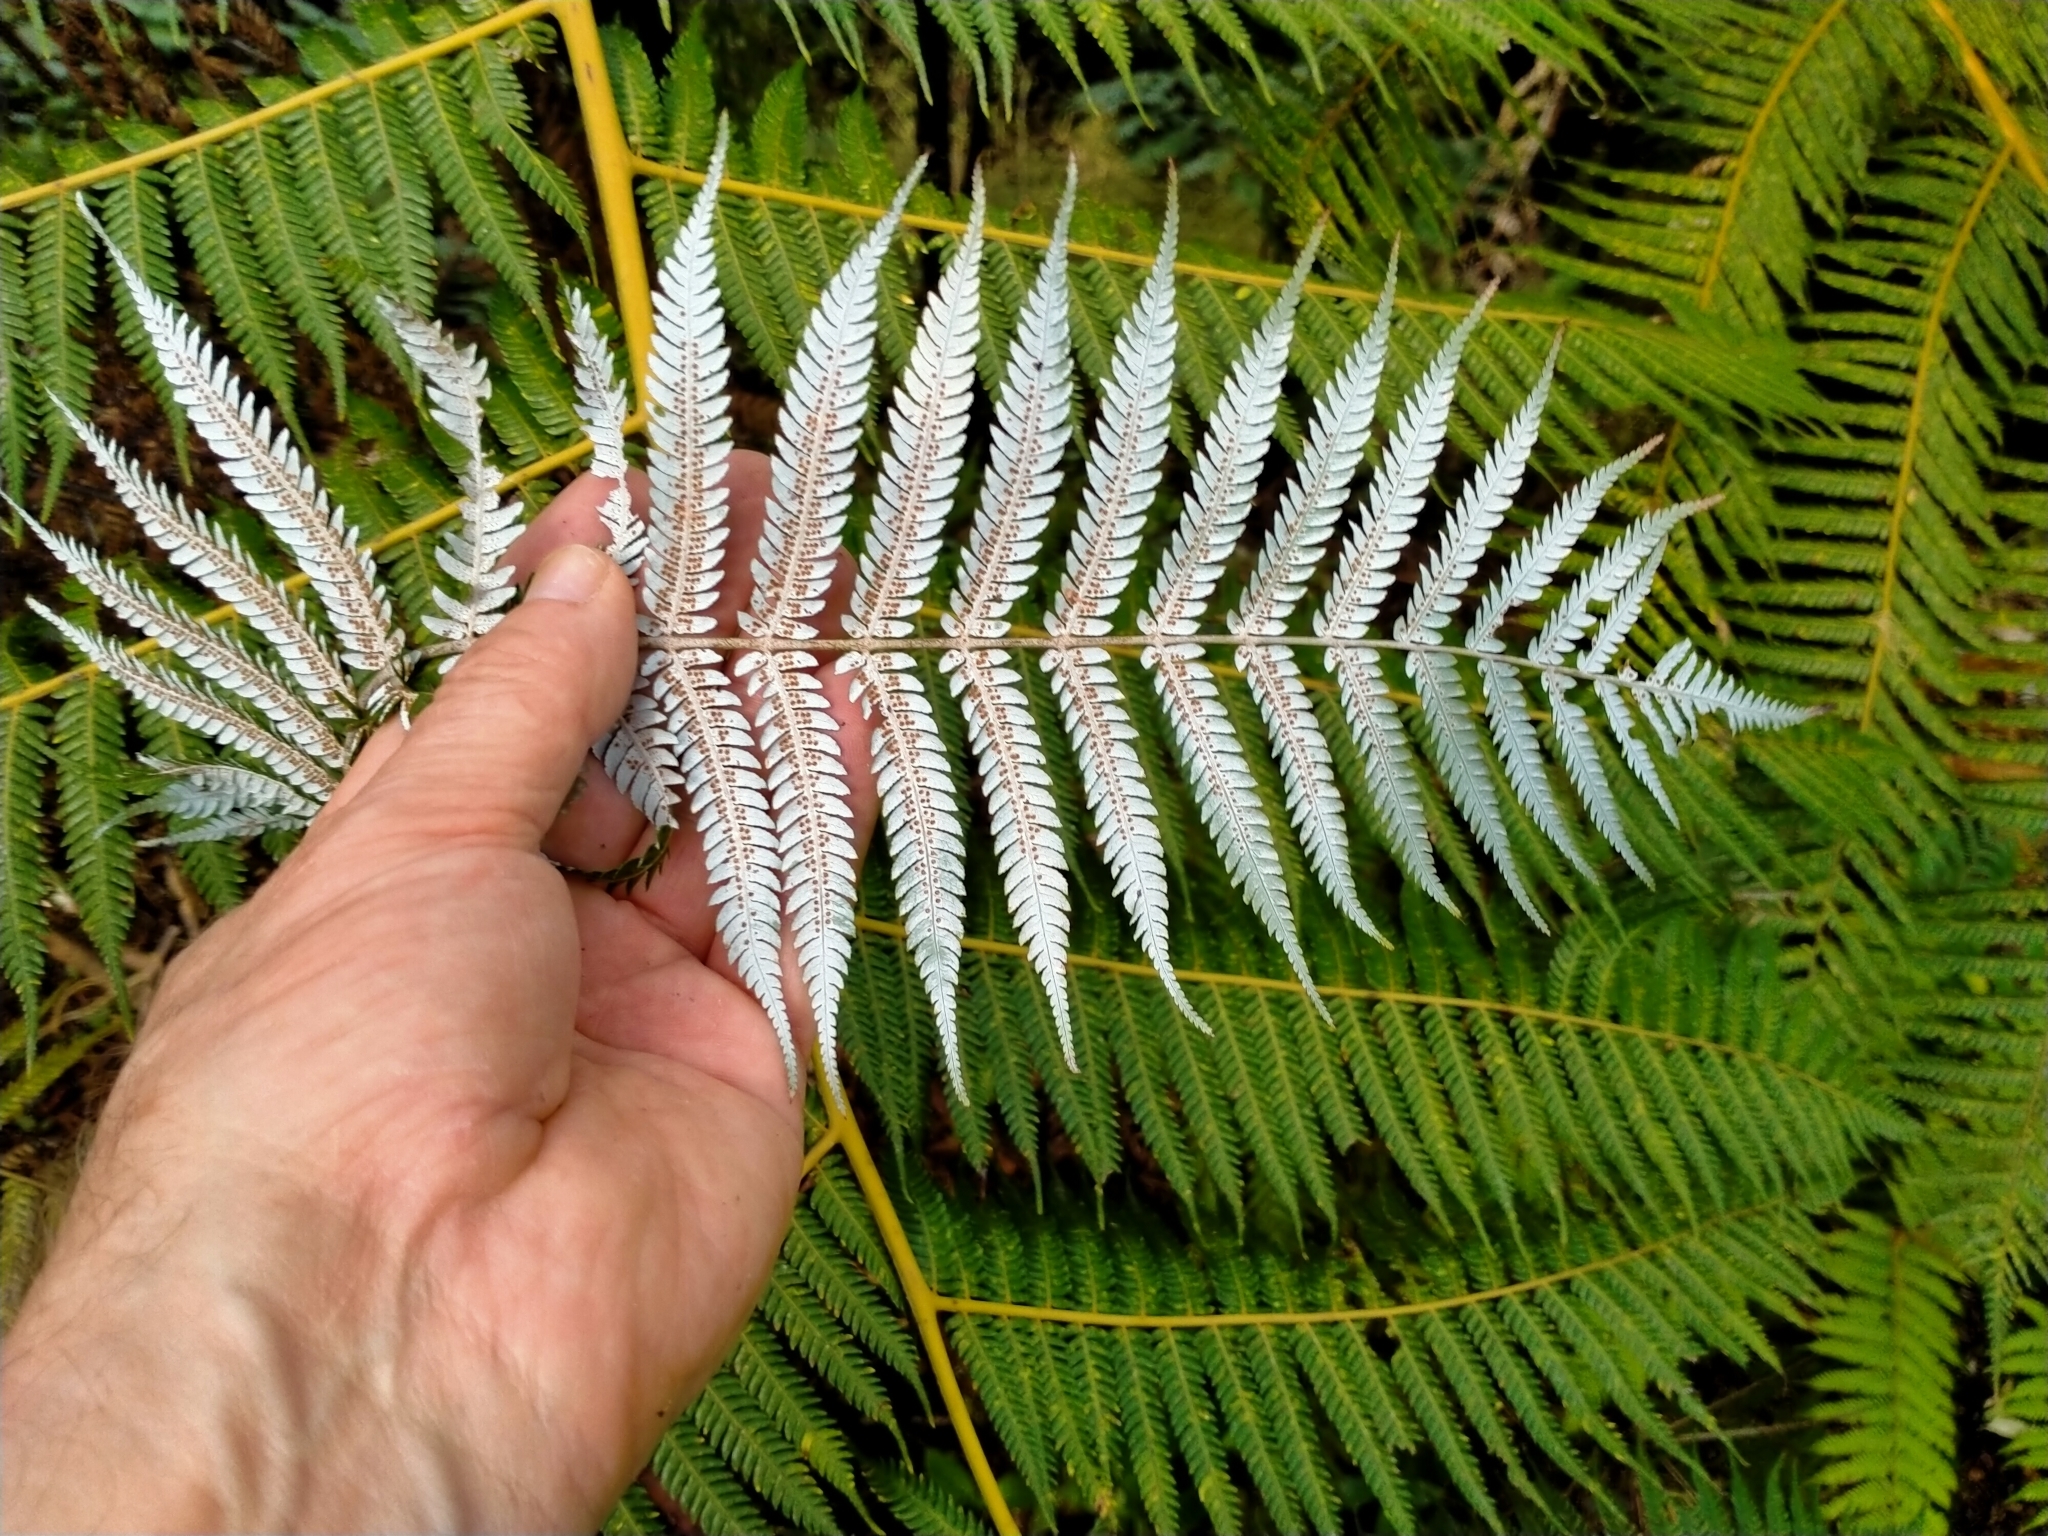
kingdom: Plantae
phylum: Tracheophyta
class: Polypodiopsida
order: Cyatheales
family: Cyatheaceae
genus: Alsophila
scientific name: Alsophila dealbata
